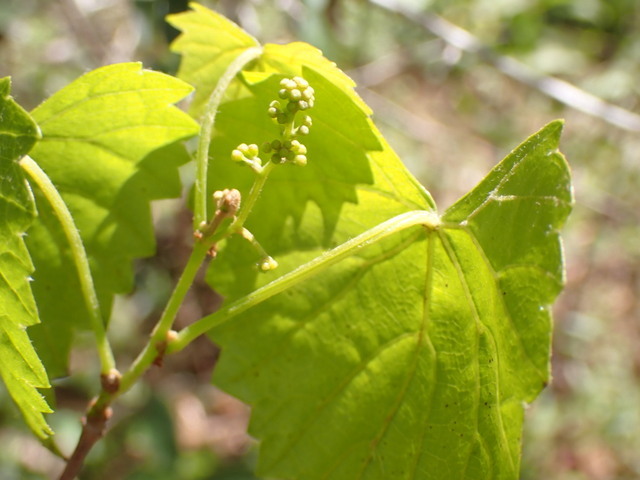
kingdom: Plantae
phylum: Tracheophyta
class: Magnoliopsida
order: Vitales
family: Vitaceae
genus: Vitis
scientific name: Vitis rotundifolia
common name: Muscadine grape
